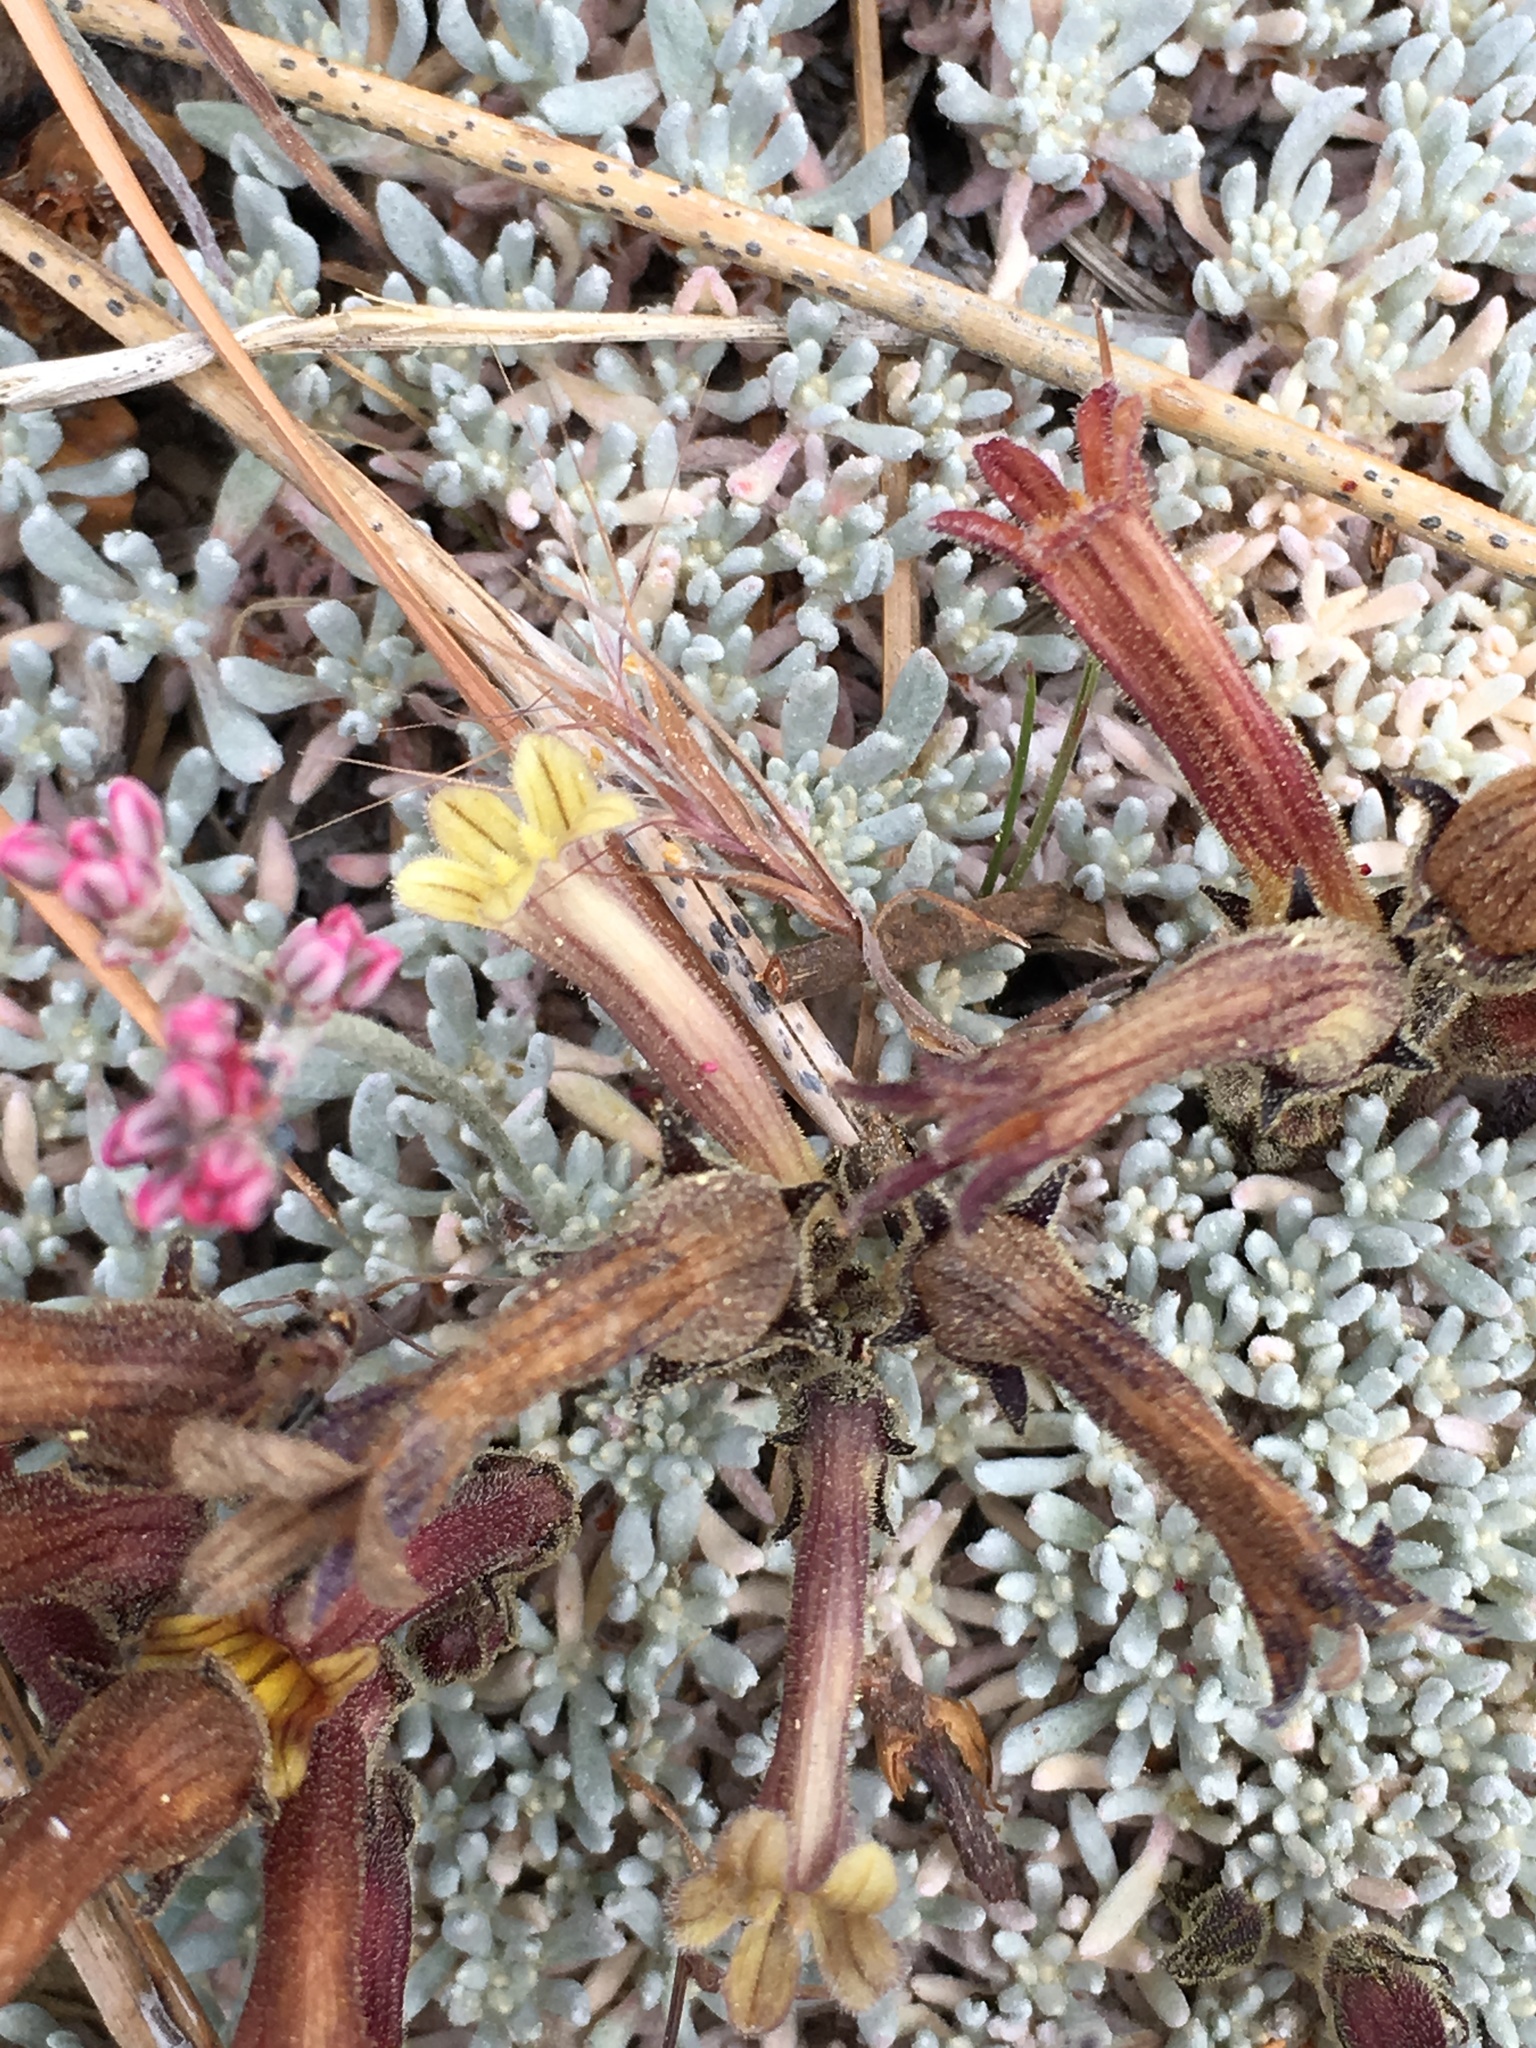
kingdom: Plantae
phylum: Tracheophyta
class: Magnoliopsida
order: Lamiales
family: Orobanchaceae
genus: Aphyllon
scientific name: Aphyllon franciscanum
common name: San francisco broomrape
